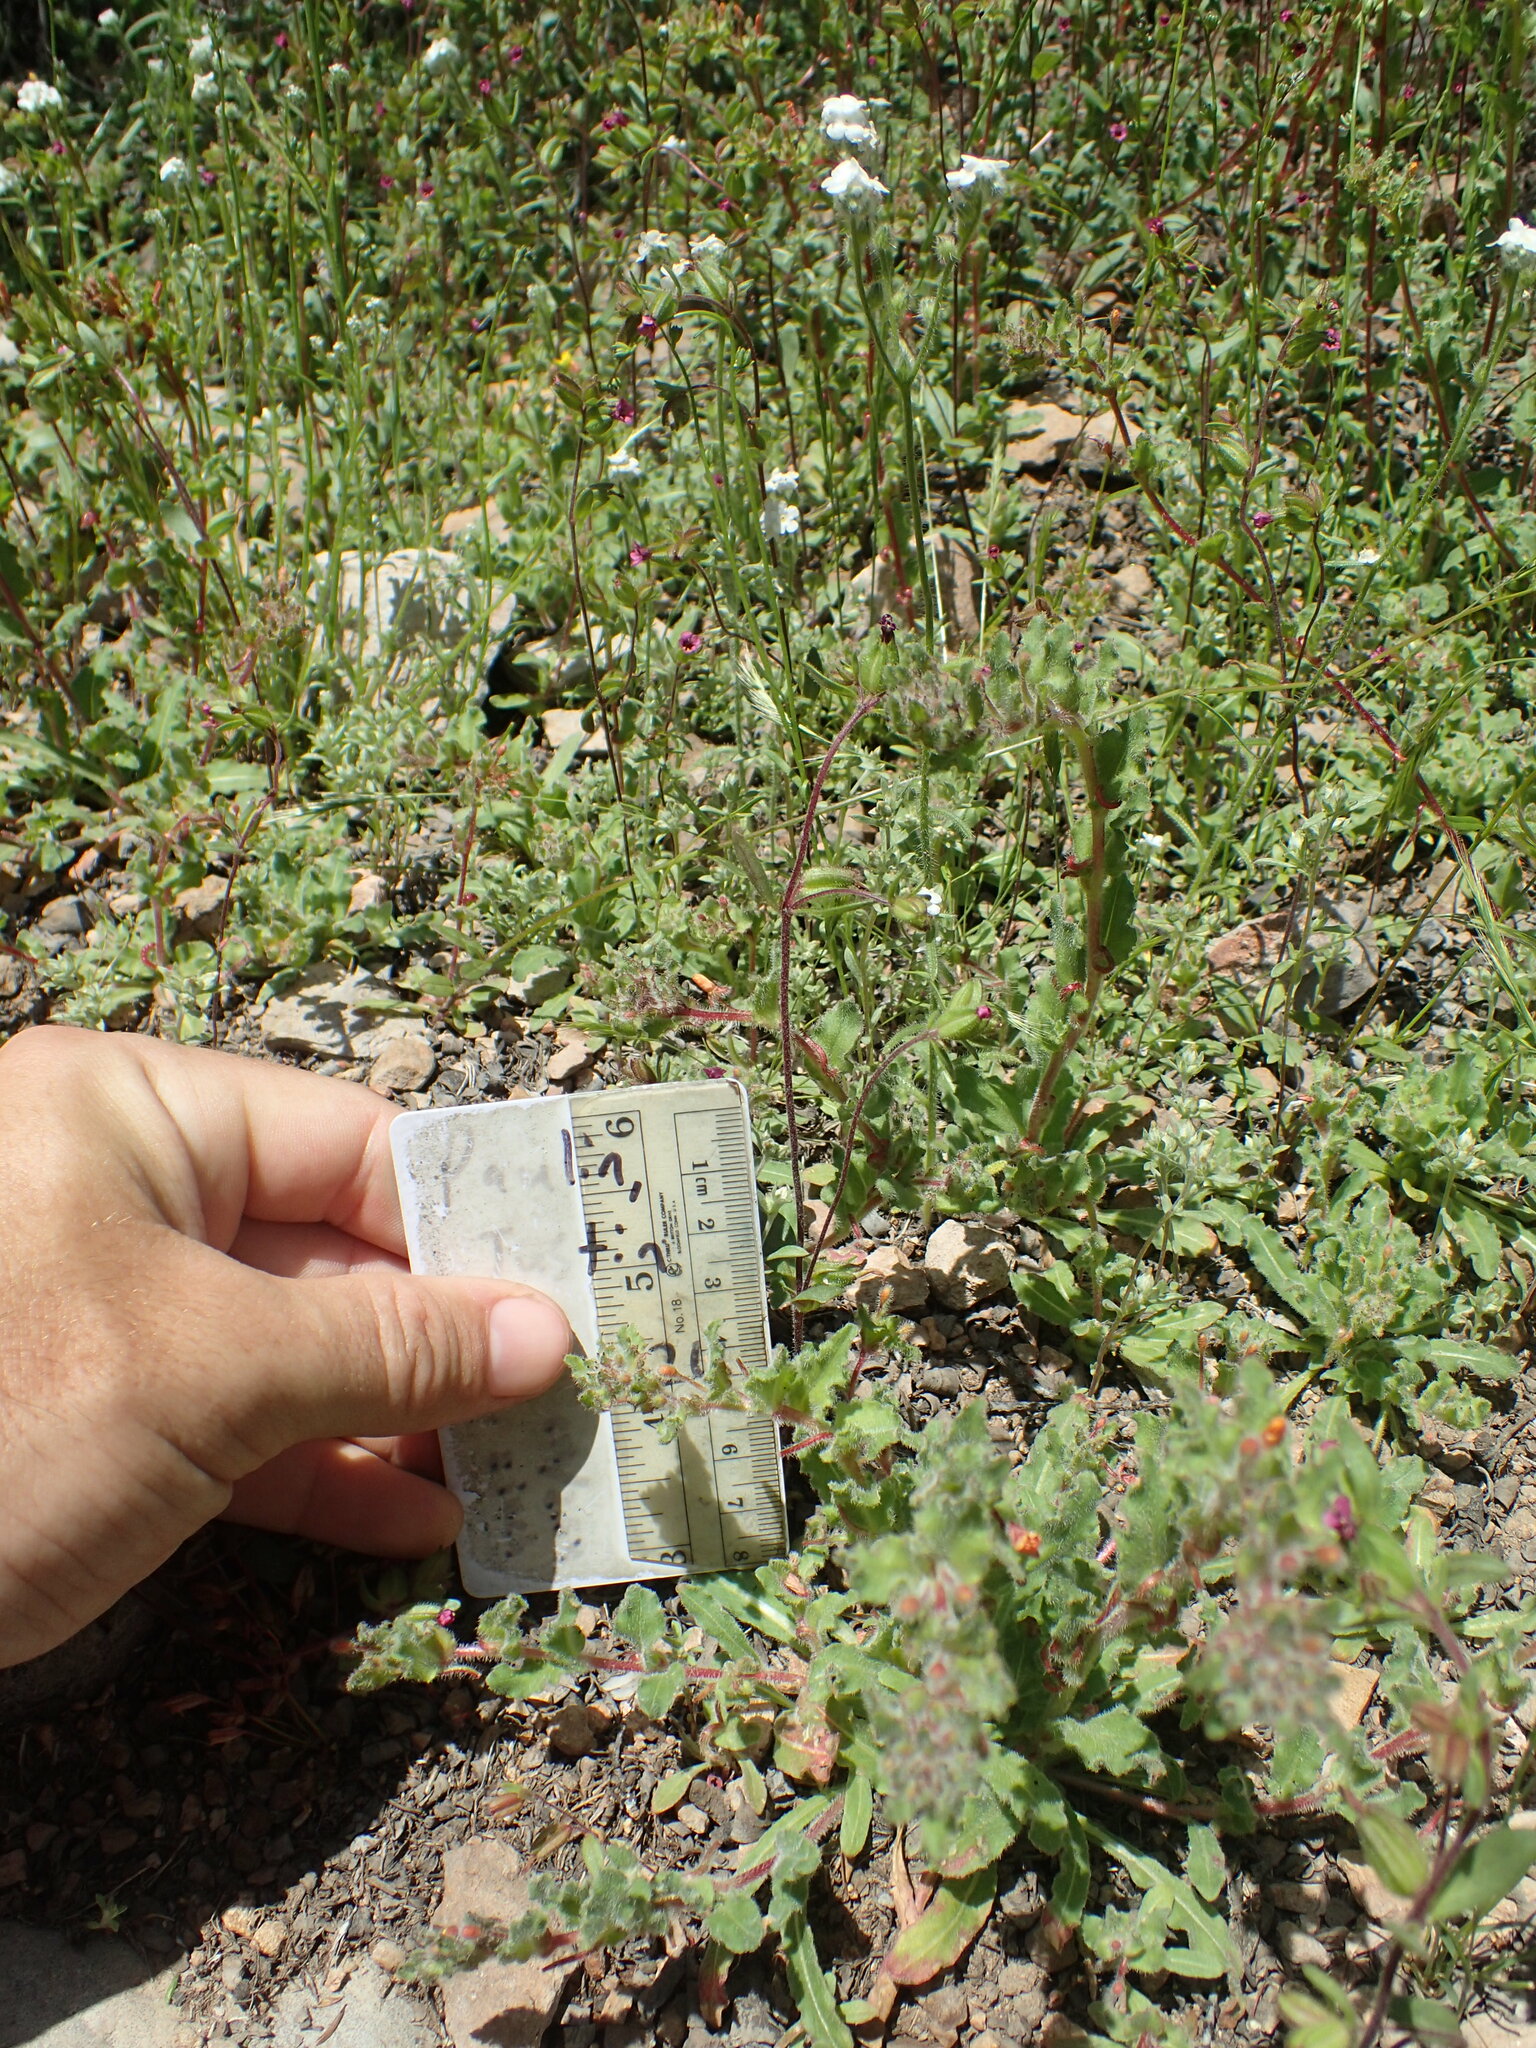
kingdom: Plantae
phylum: Tracheophyta
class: Magnoliopsida
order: Lamiales
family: Phrymaceae
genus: Diplacus
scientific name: Diplacus rattanii
